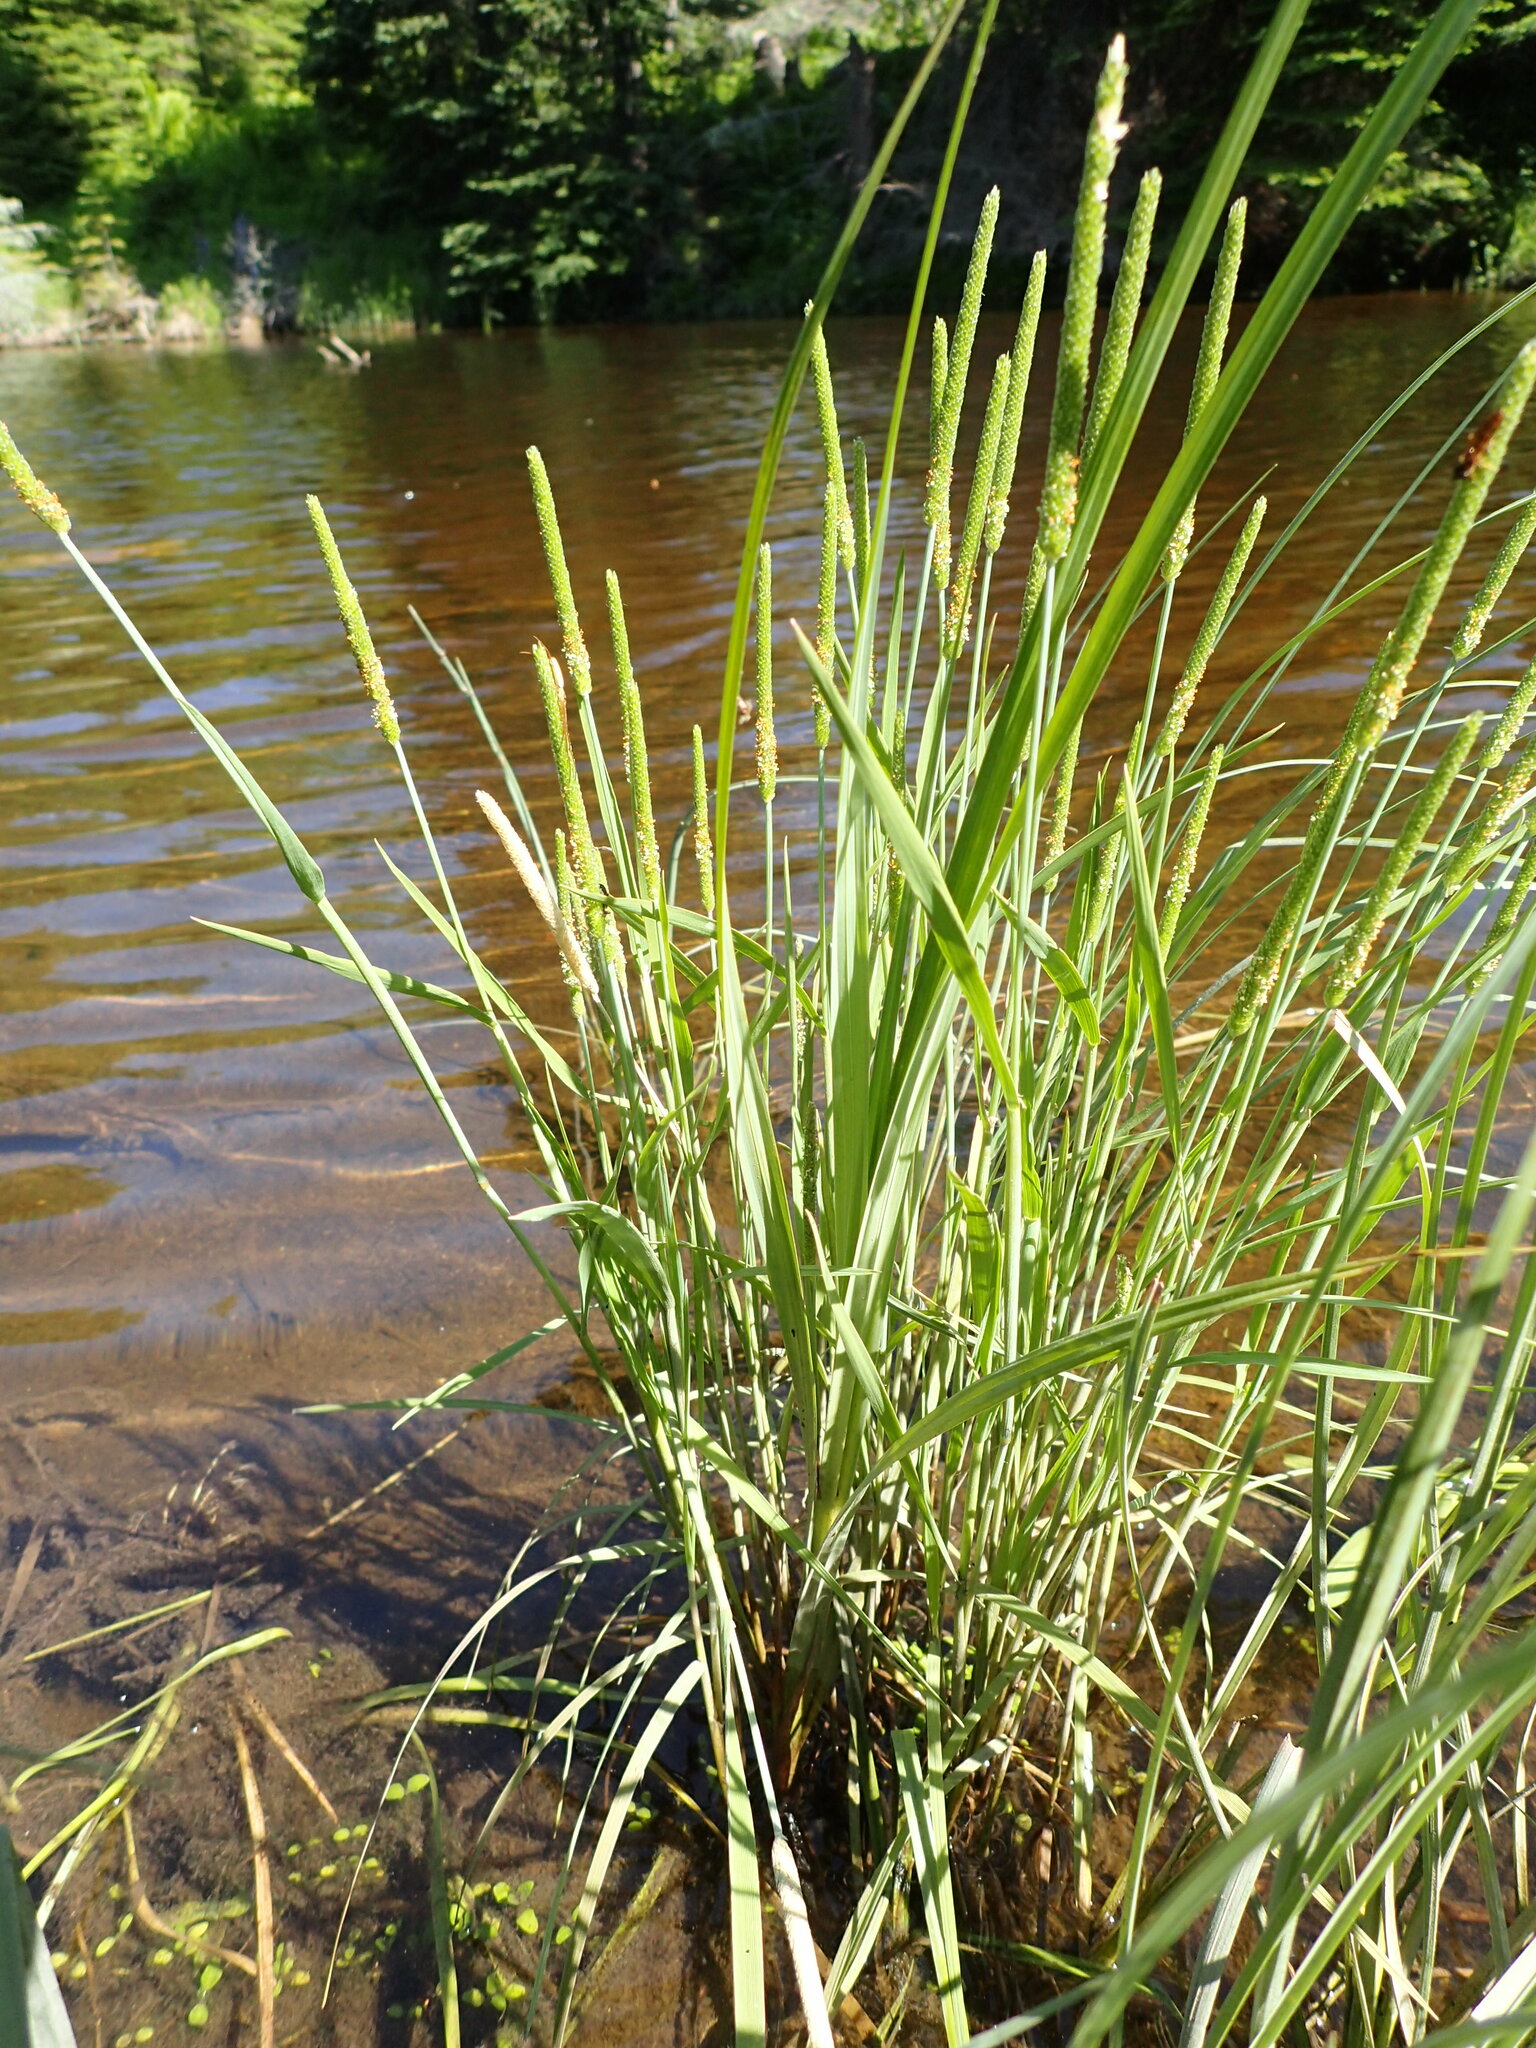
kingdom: Plantae
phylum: Tracheophyta
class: Liliopsida
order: Poales
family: Poaceae
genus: Alopecurus
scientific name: Alopecurus aequalis
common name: Orange foxtail
